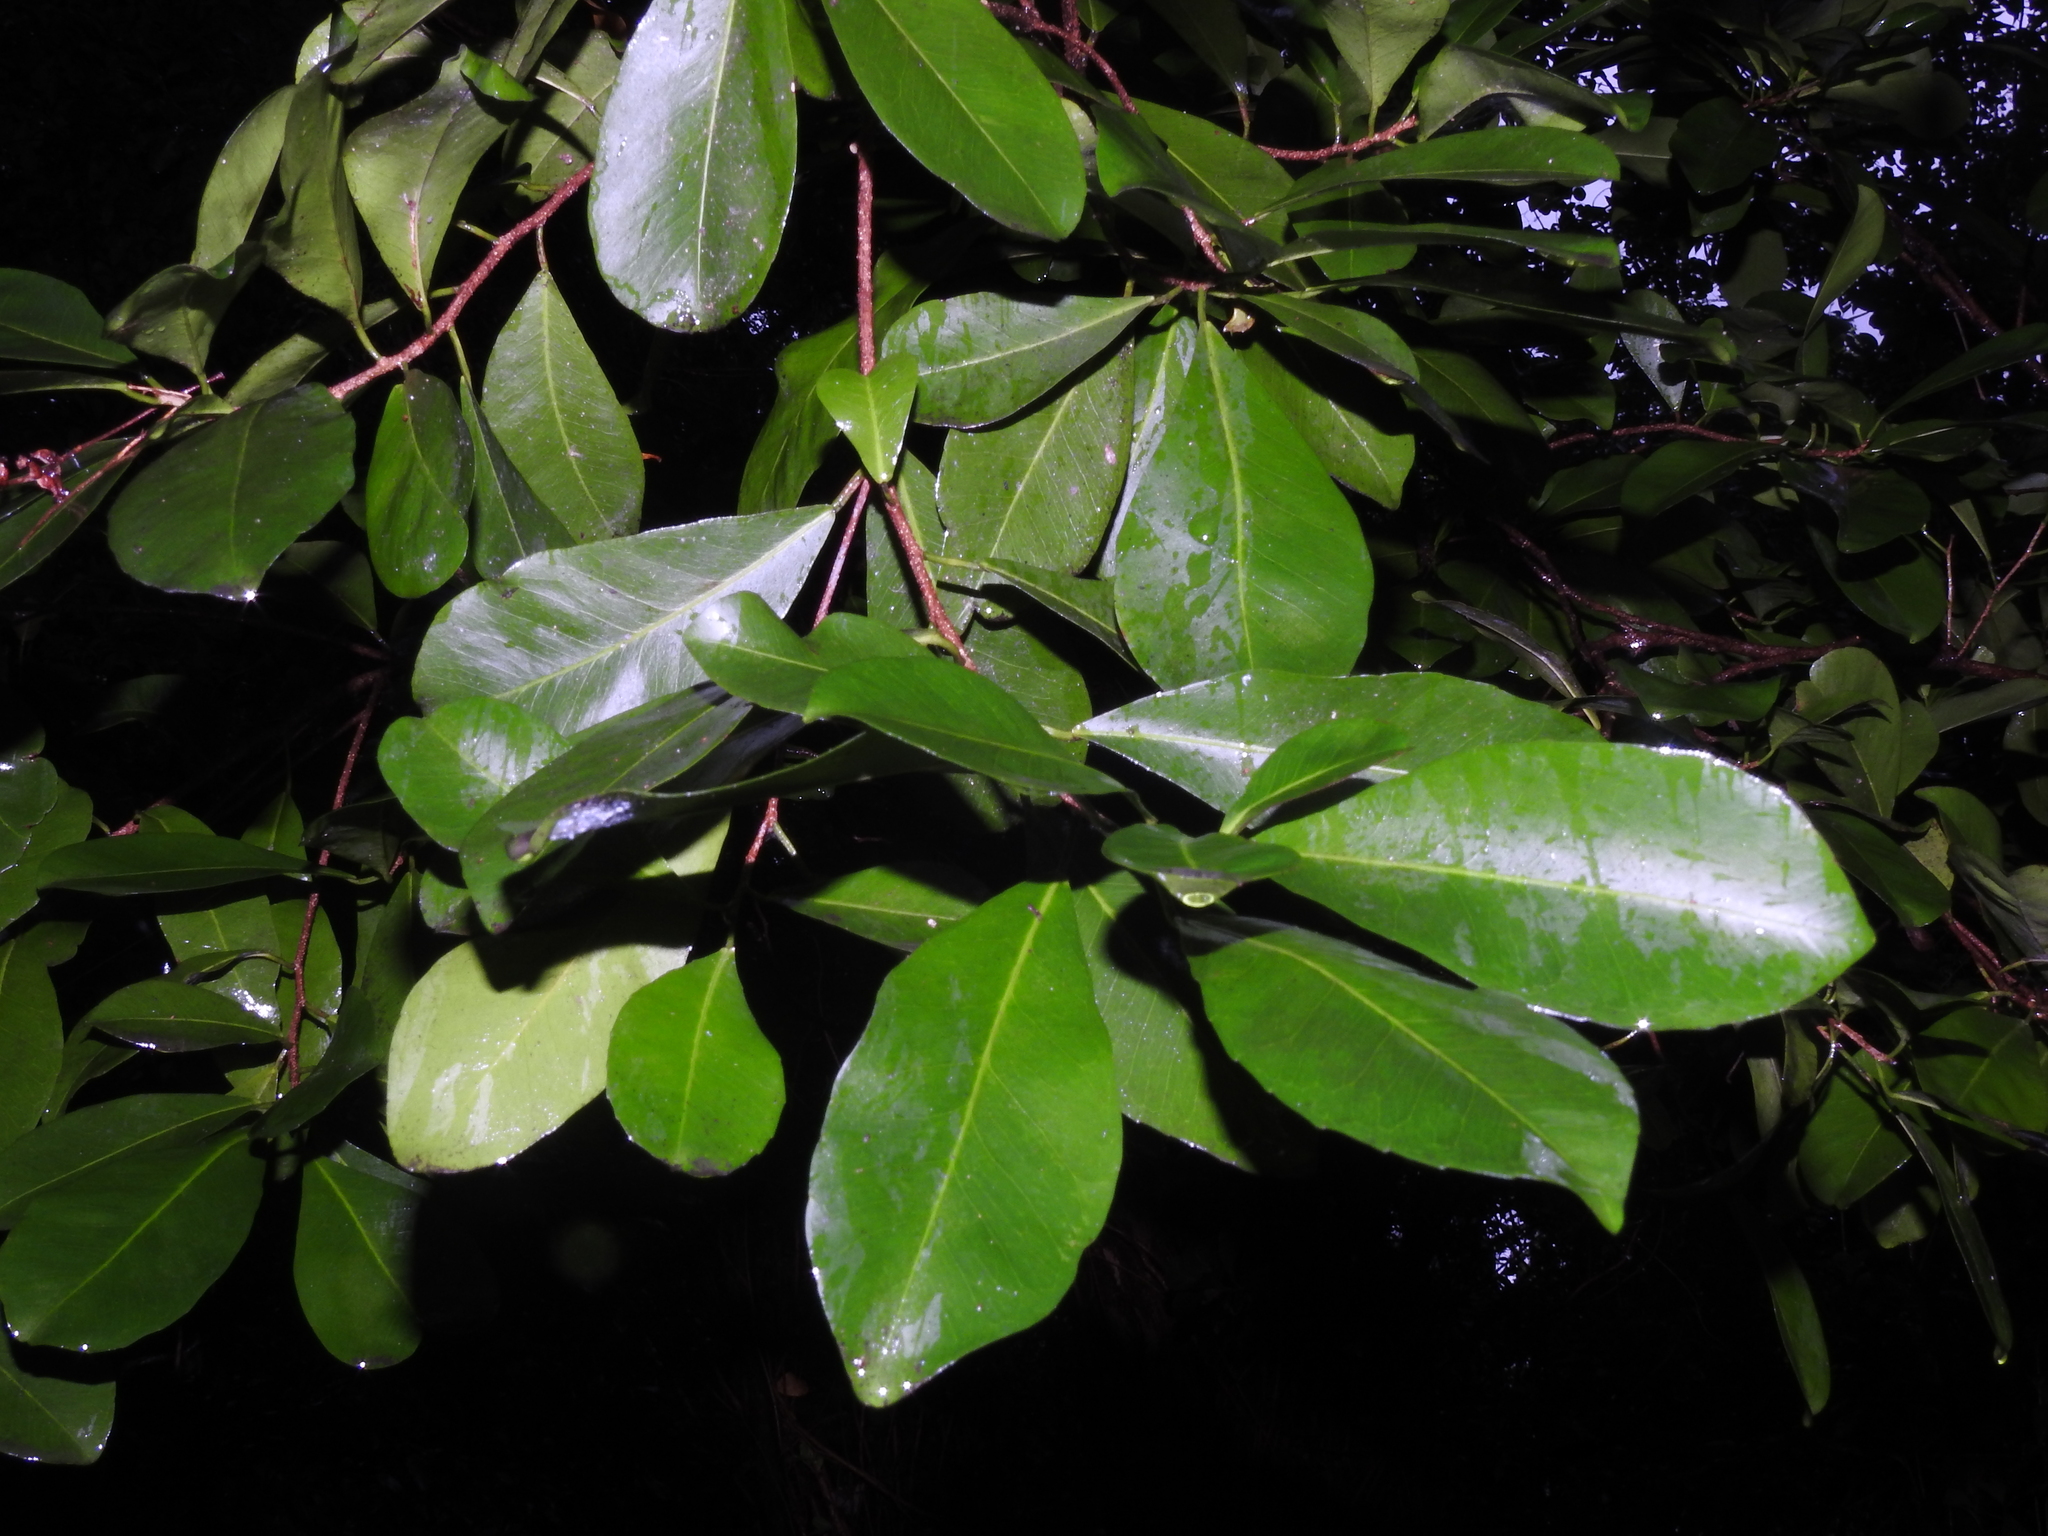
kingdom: Plantae
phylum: Tracheophyta
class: Magnoliopsida
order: Malpighiales
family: Euphorbiaceae
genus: Gymnanthes
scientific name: Gymnanthes lucida
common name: Oysterwood
